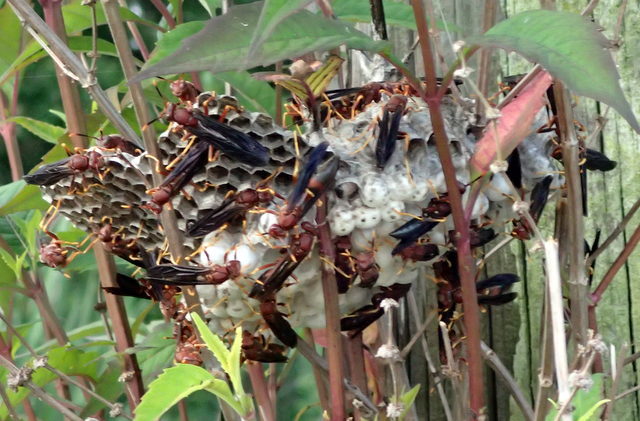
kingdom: Animalia
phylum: Arthropoda
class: Insecta
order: Hymenoptera
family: Eumenidae
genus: Polistes
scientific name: Polistes annularis
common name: Ringed paper wasp
